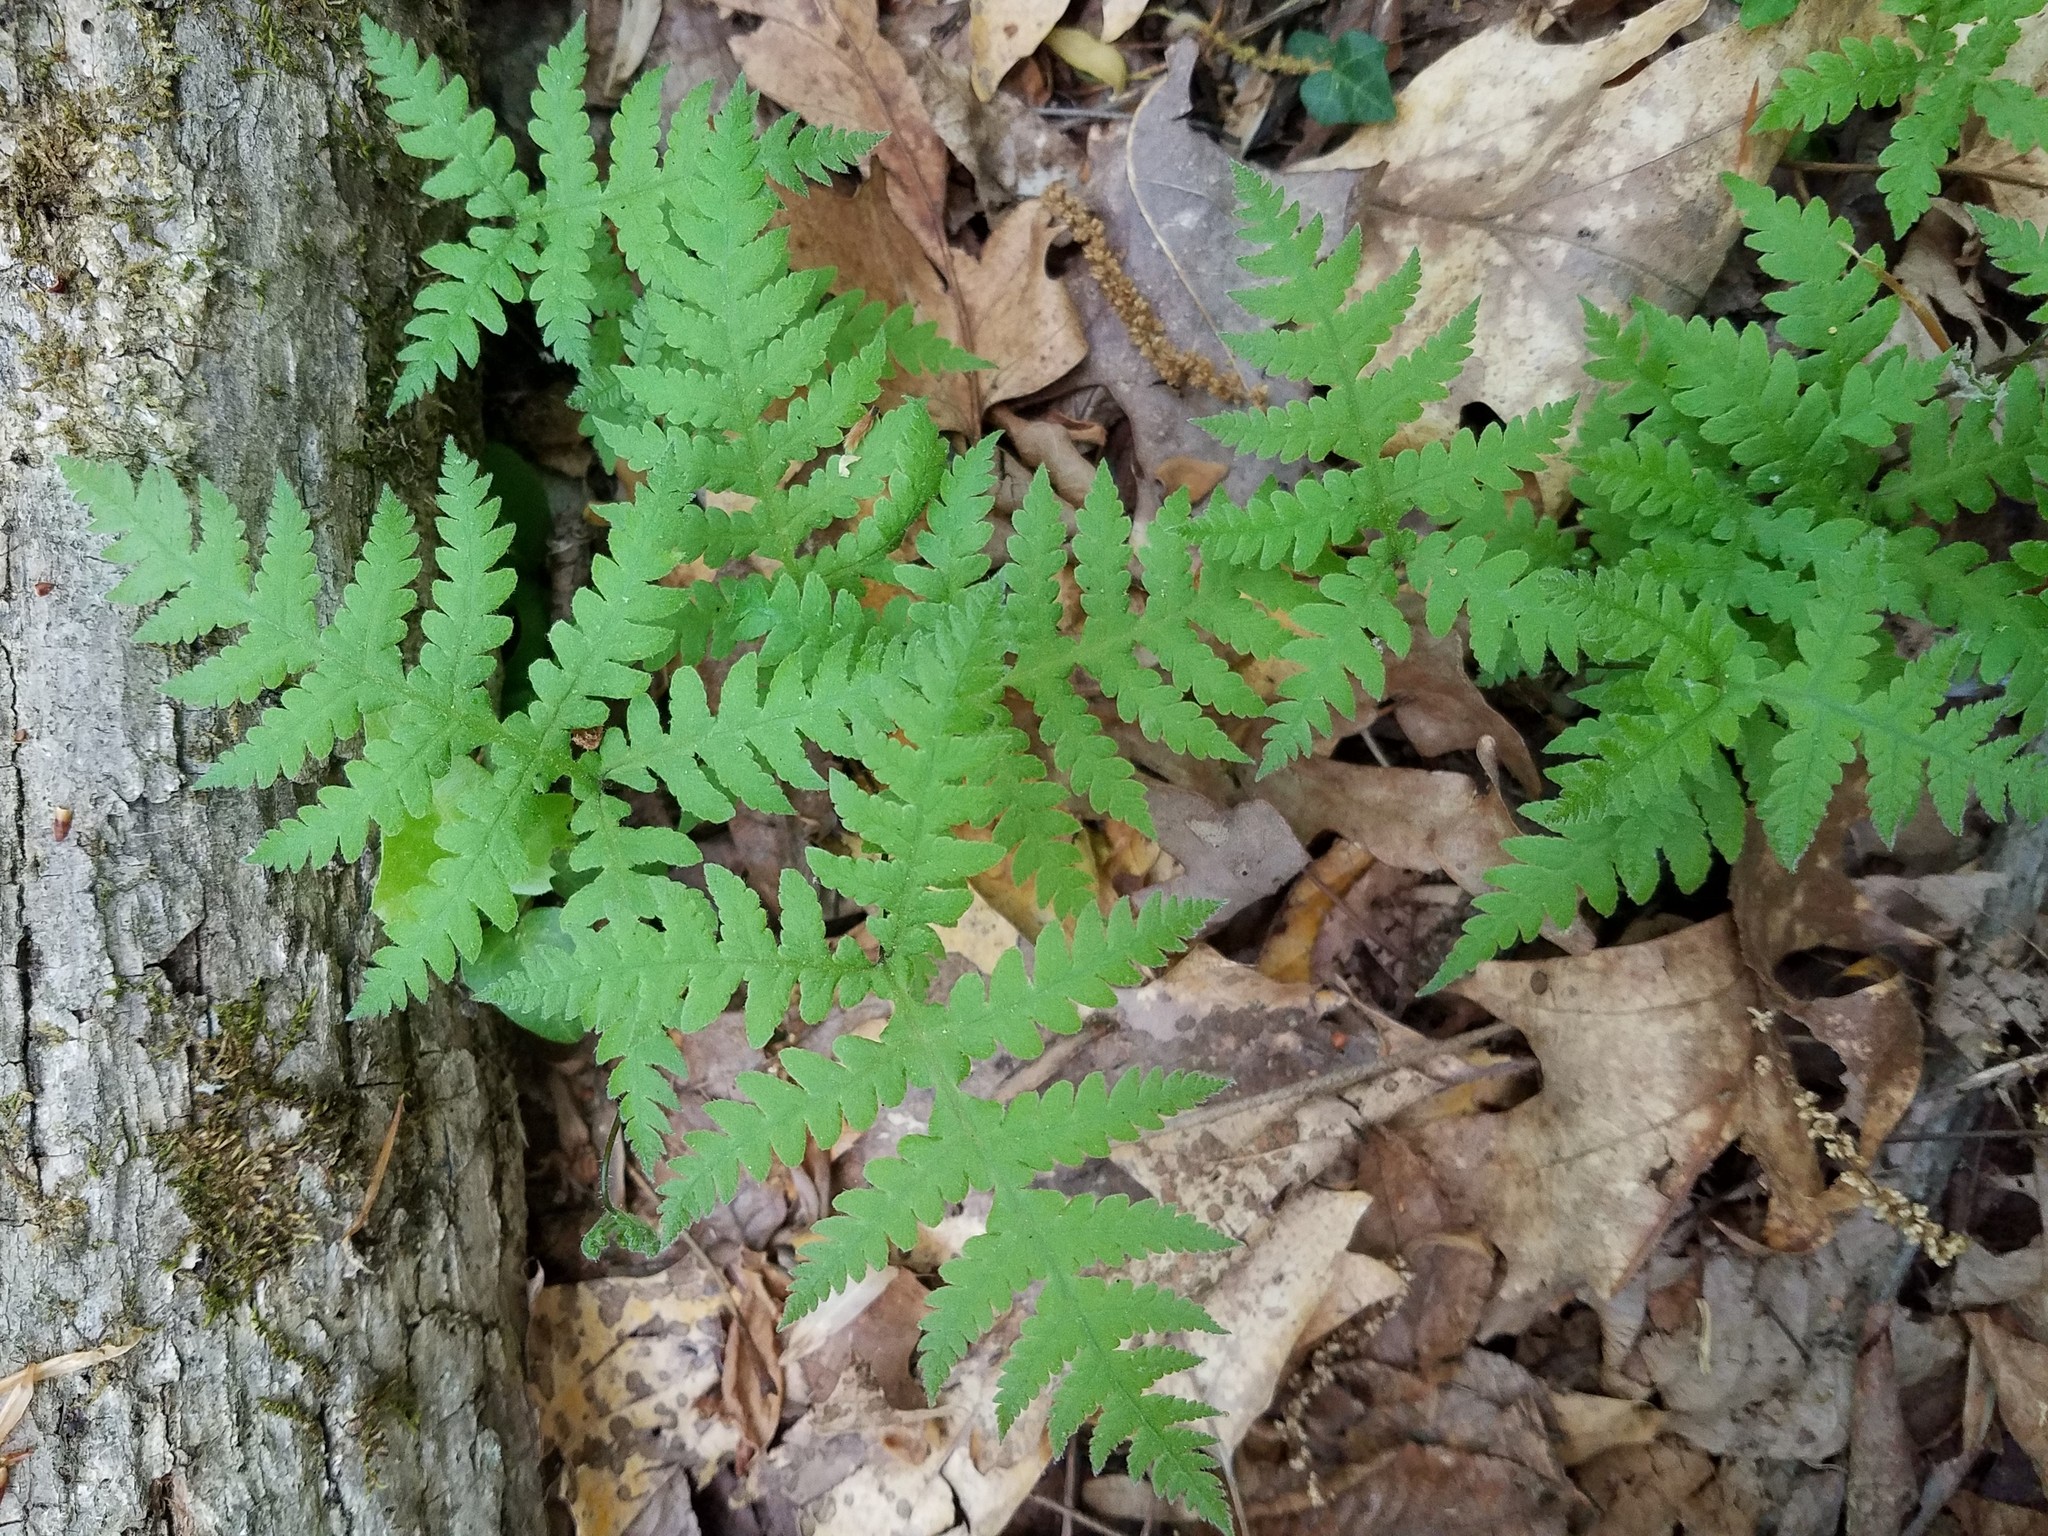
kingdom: Plantae
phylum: Tracheophyta
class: Polypodiopsida
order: Polypodiales
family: Thelypteridaceae
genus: Phegopteris
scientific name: Phegopteris hexagonoptera
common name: Broad beech fern
